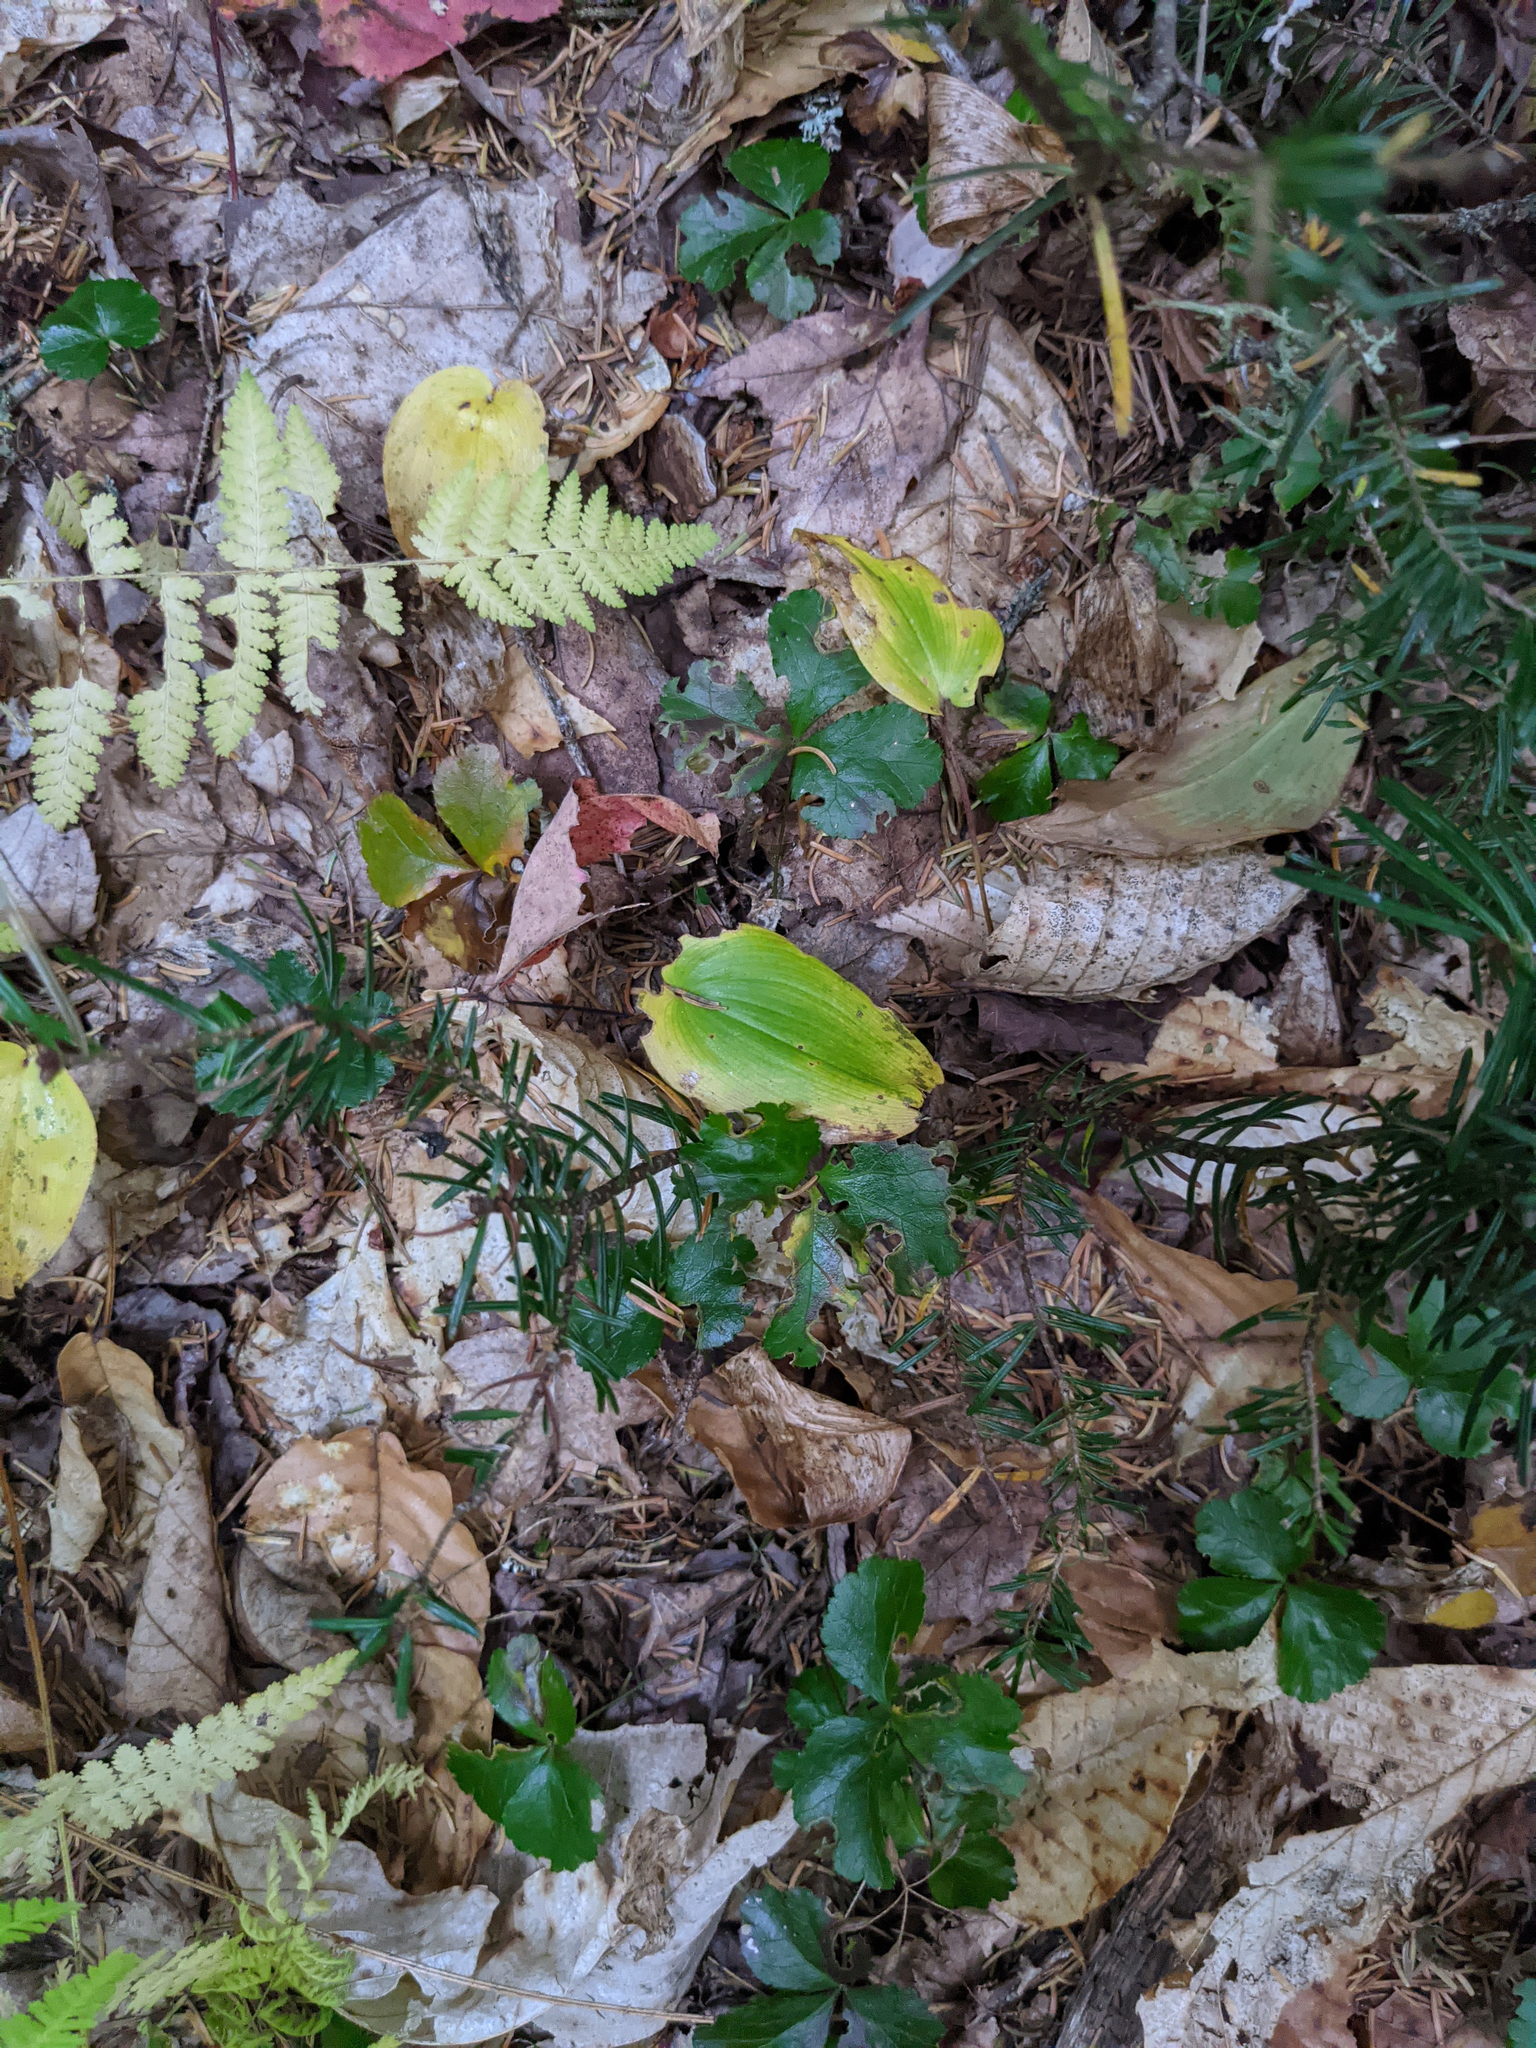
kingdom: Plantae
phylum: Tracheophyta
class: Magnoliopsida
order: Ranunculales
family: Ranunculaceae
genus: Coptis
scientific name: Coptis trifolia
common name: Canker-root
